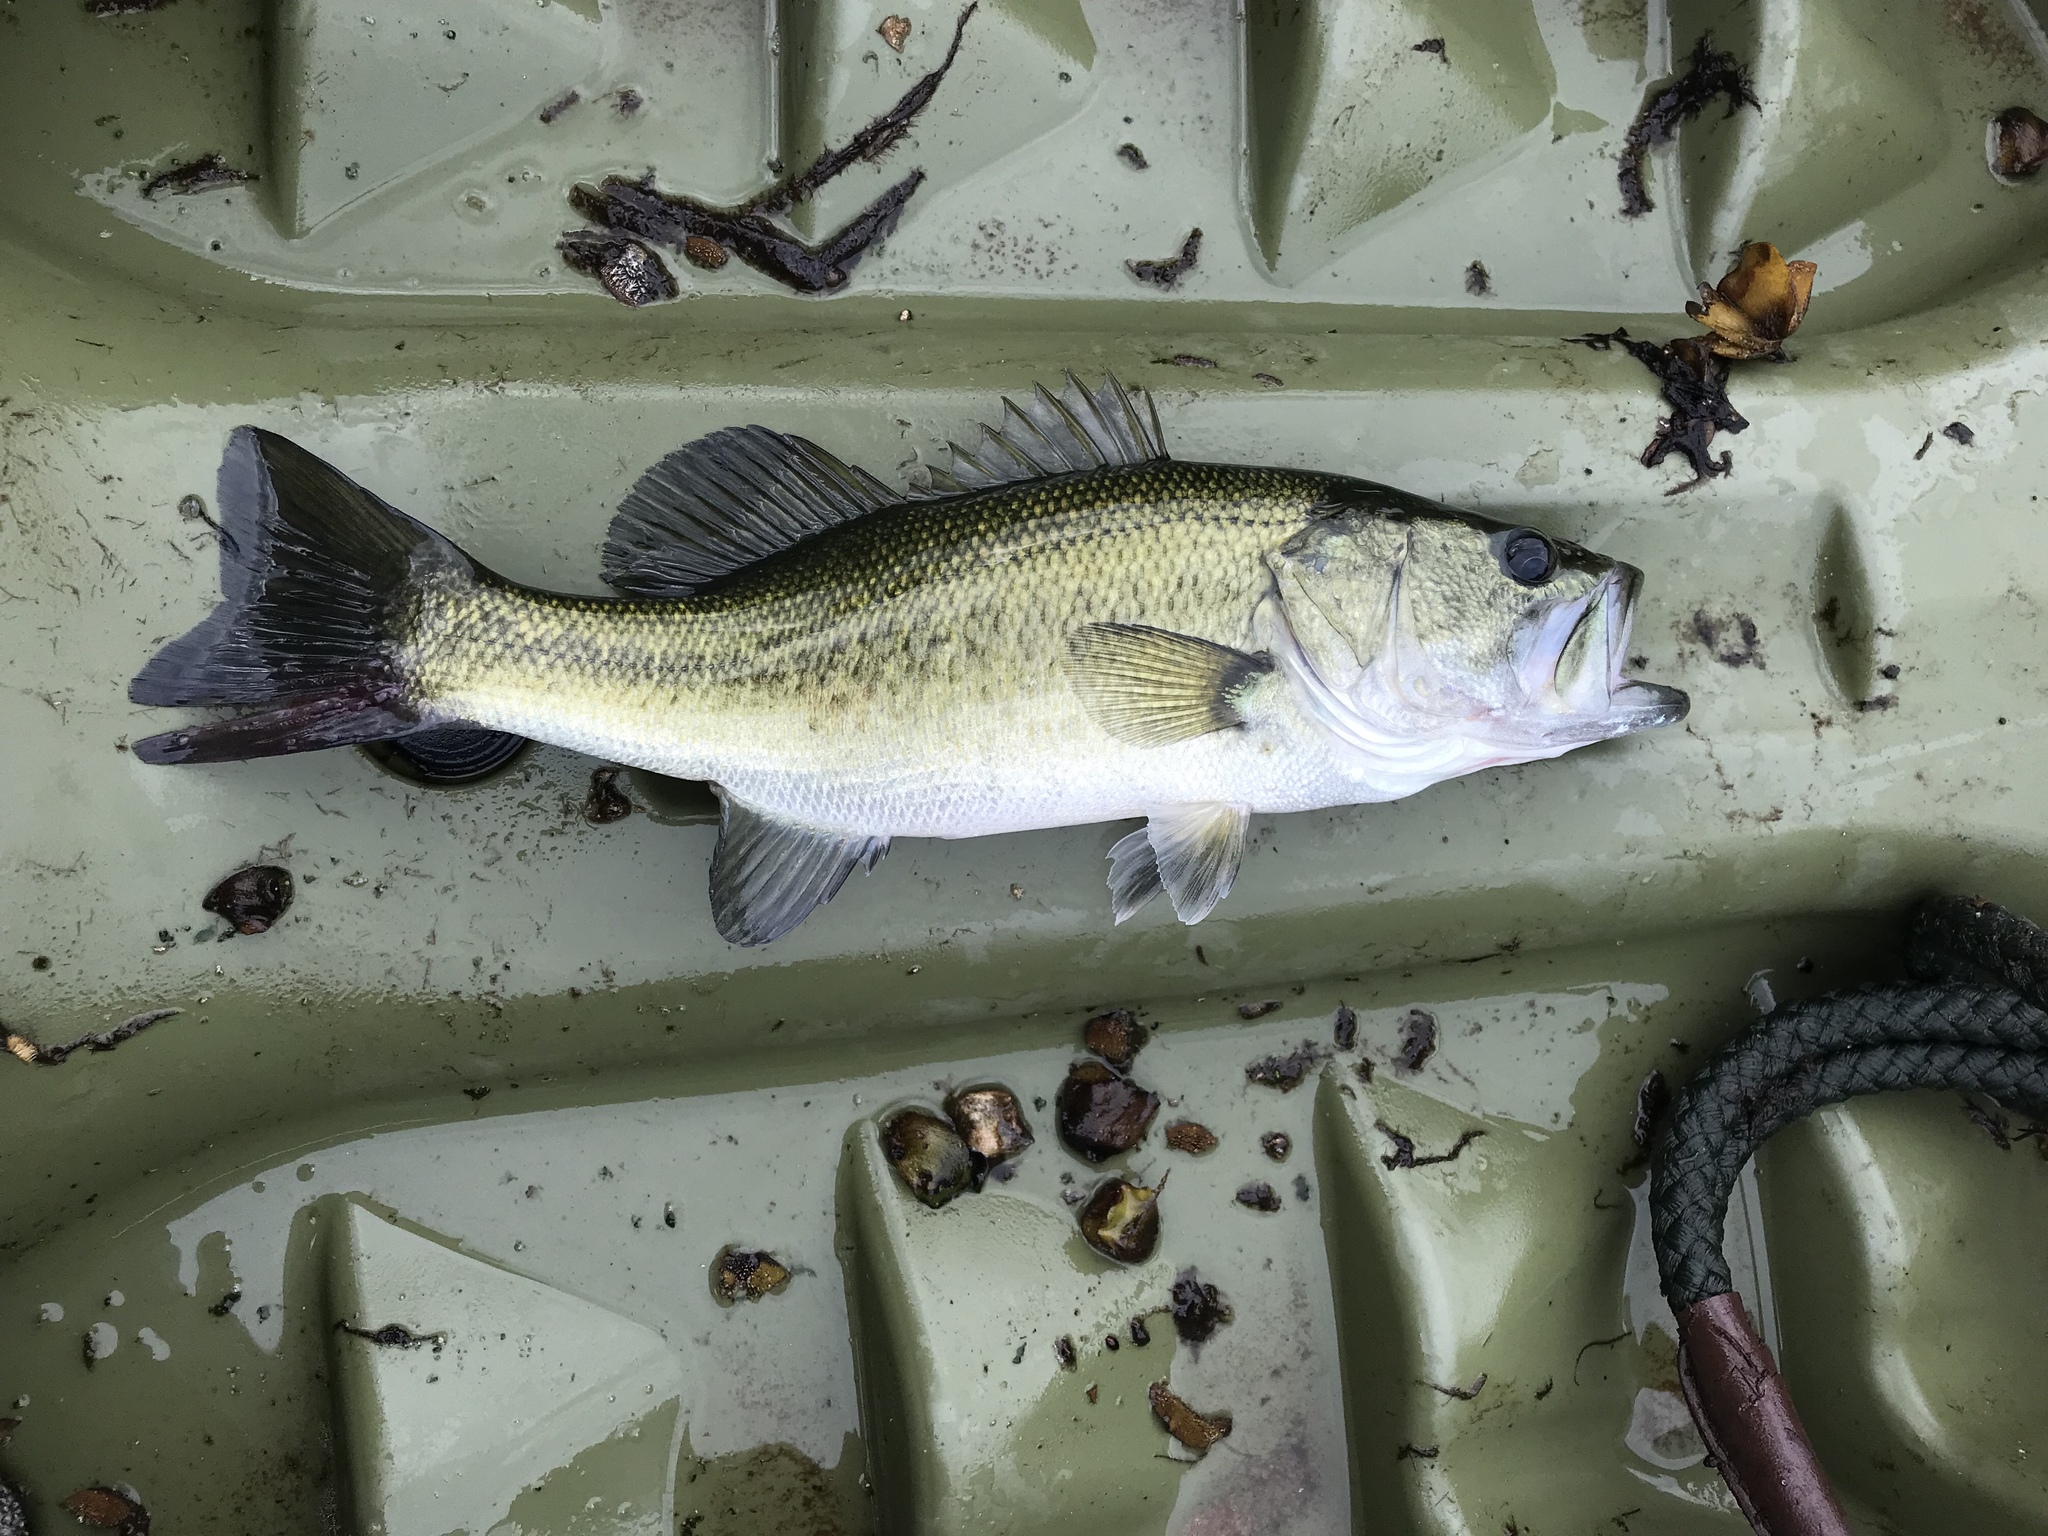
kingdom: Animalia
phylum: Chordata
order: Perciformes
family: Centrarchidae
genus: Micropterus
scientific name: Micropterus
